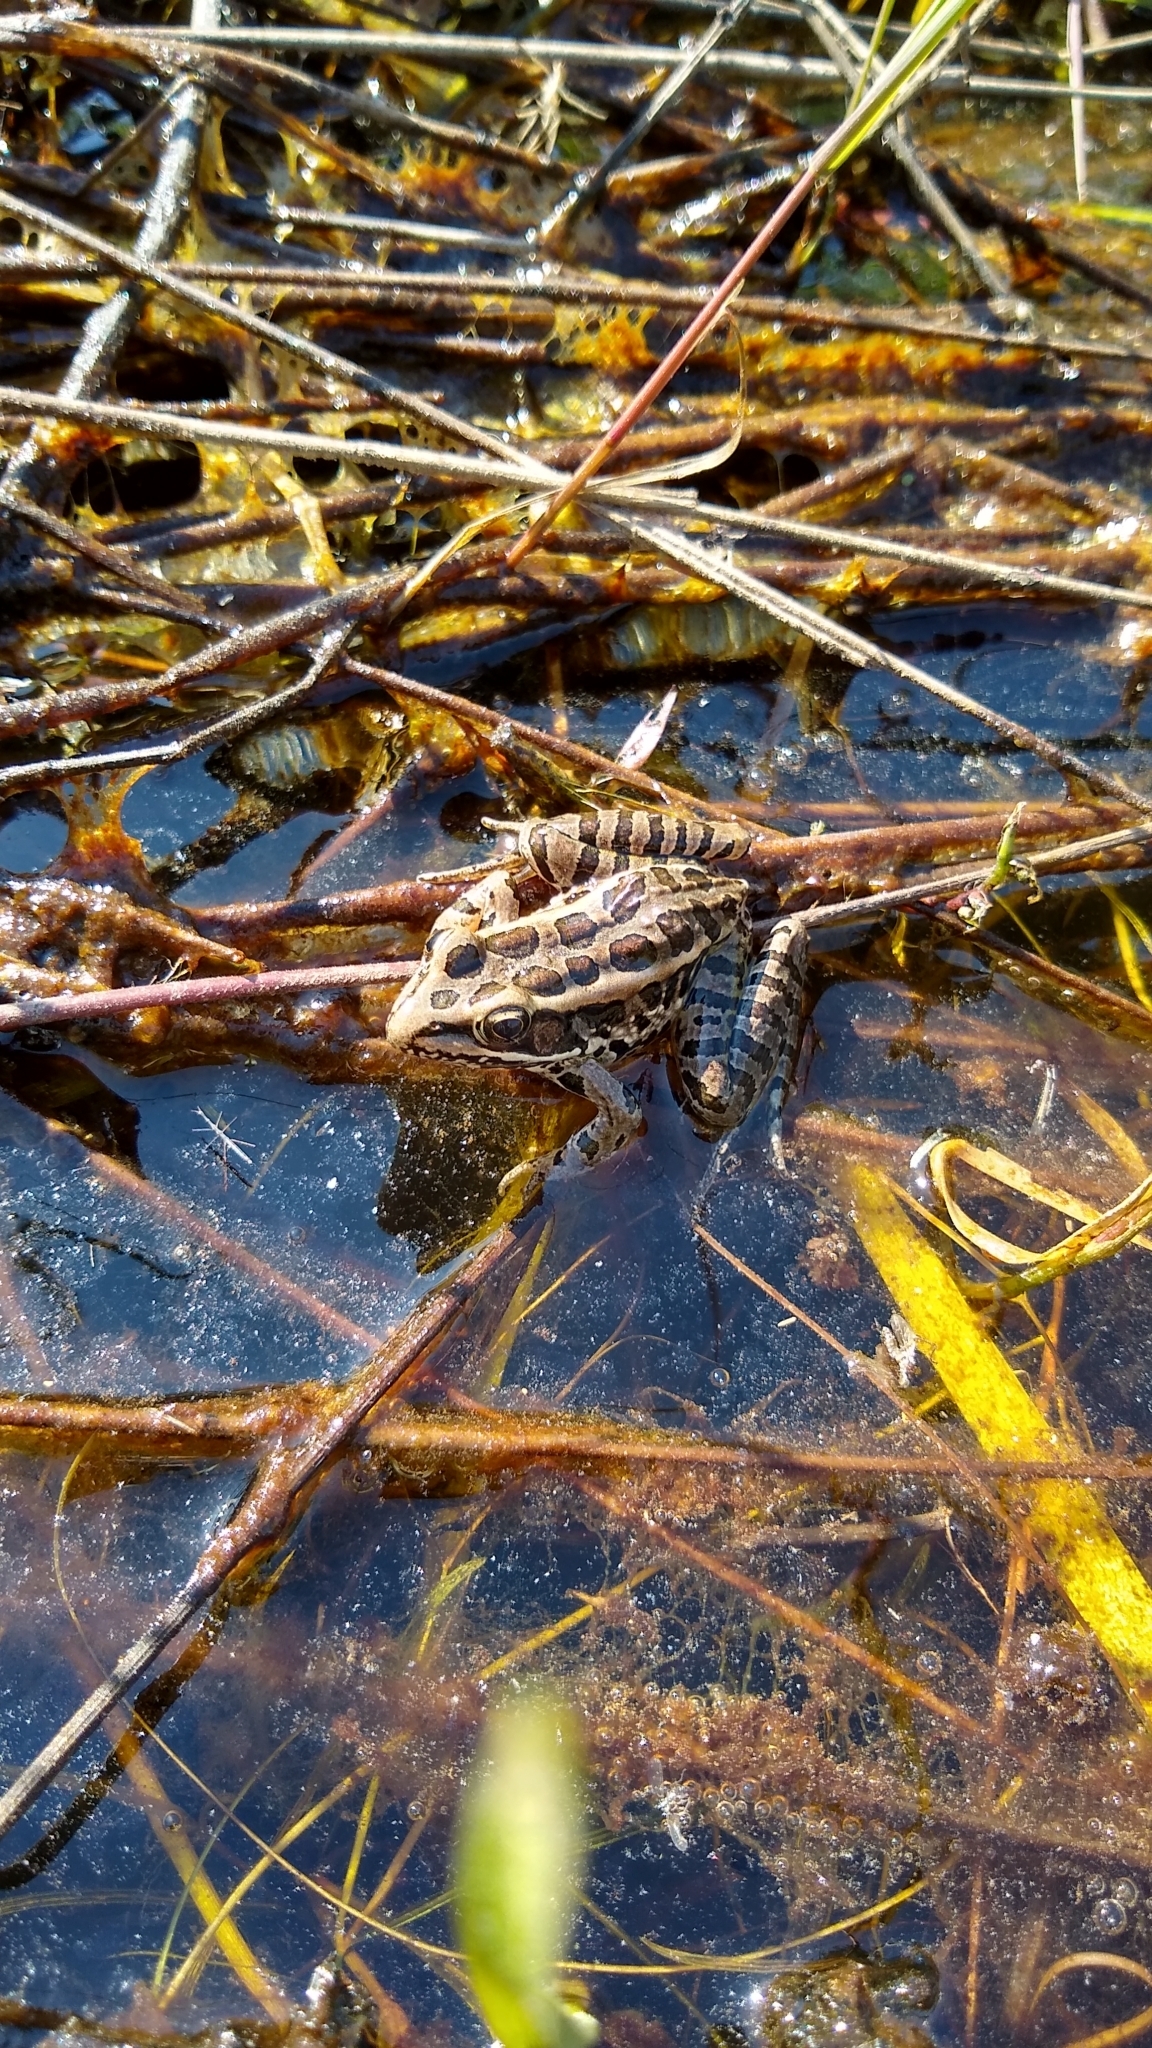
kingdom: Animalia
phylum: Chordata
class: Amphibia
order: Anura
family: Ranidae
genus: Lithobates
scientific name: Lithobates palustris
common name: Pickerel frog
